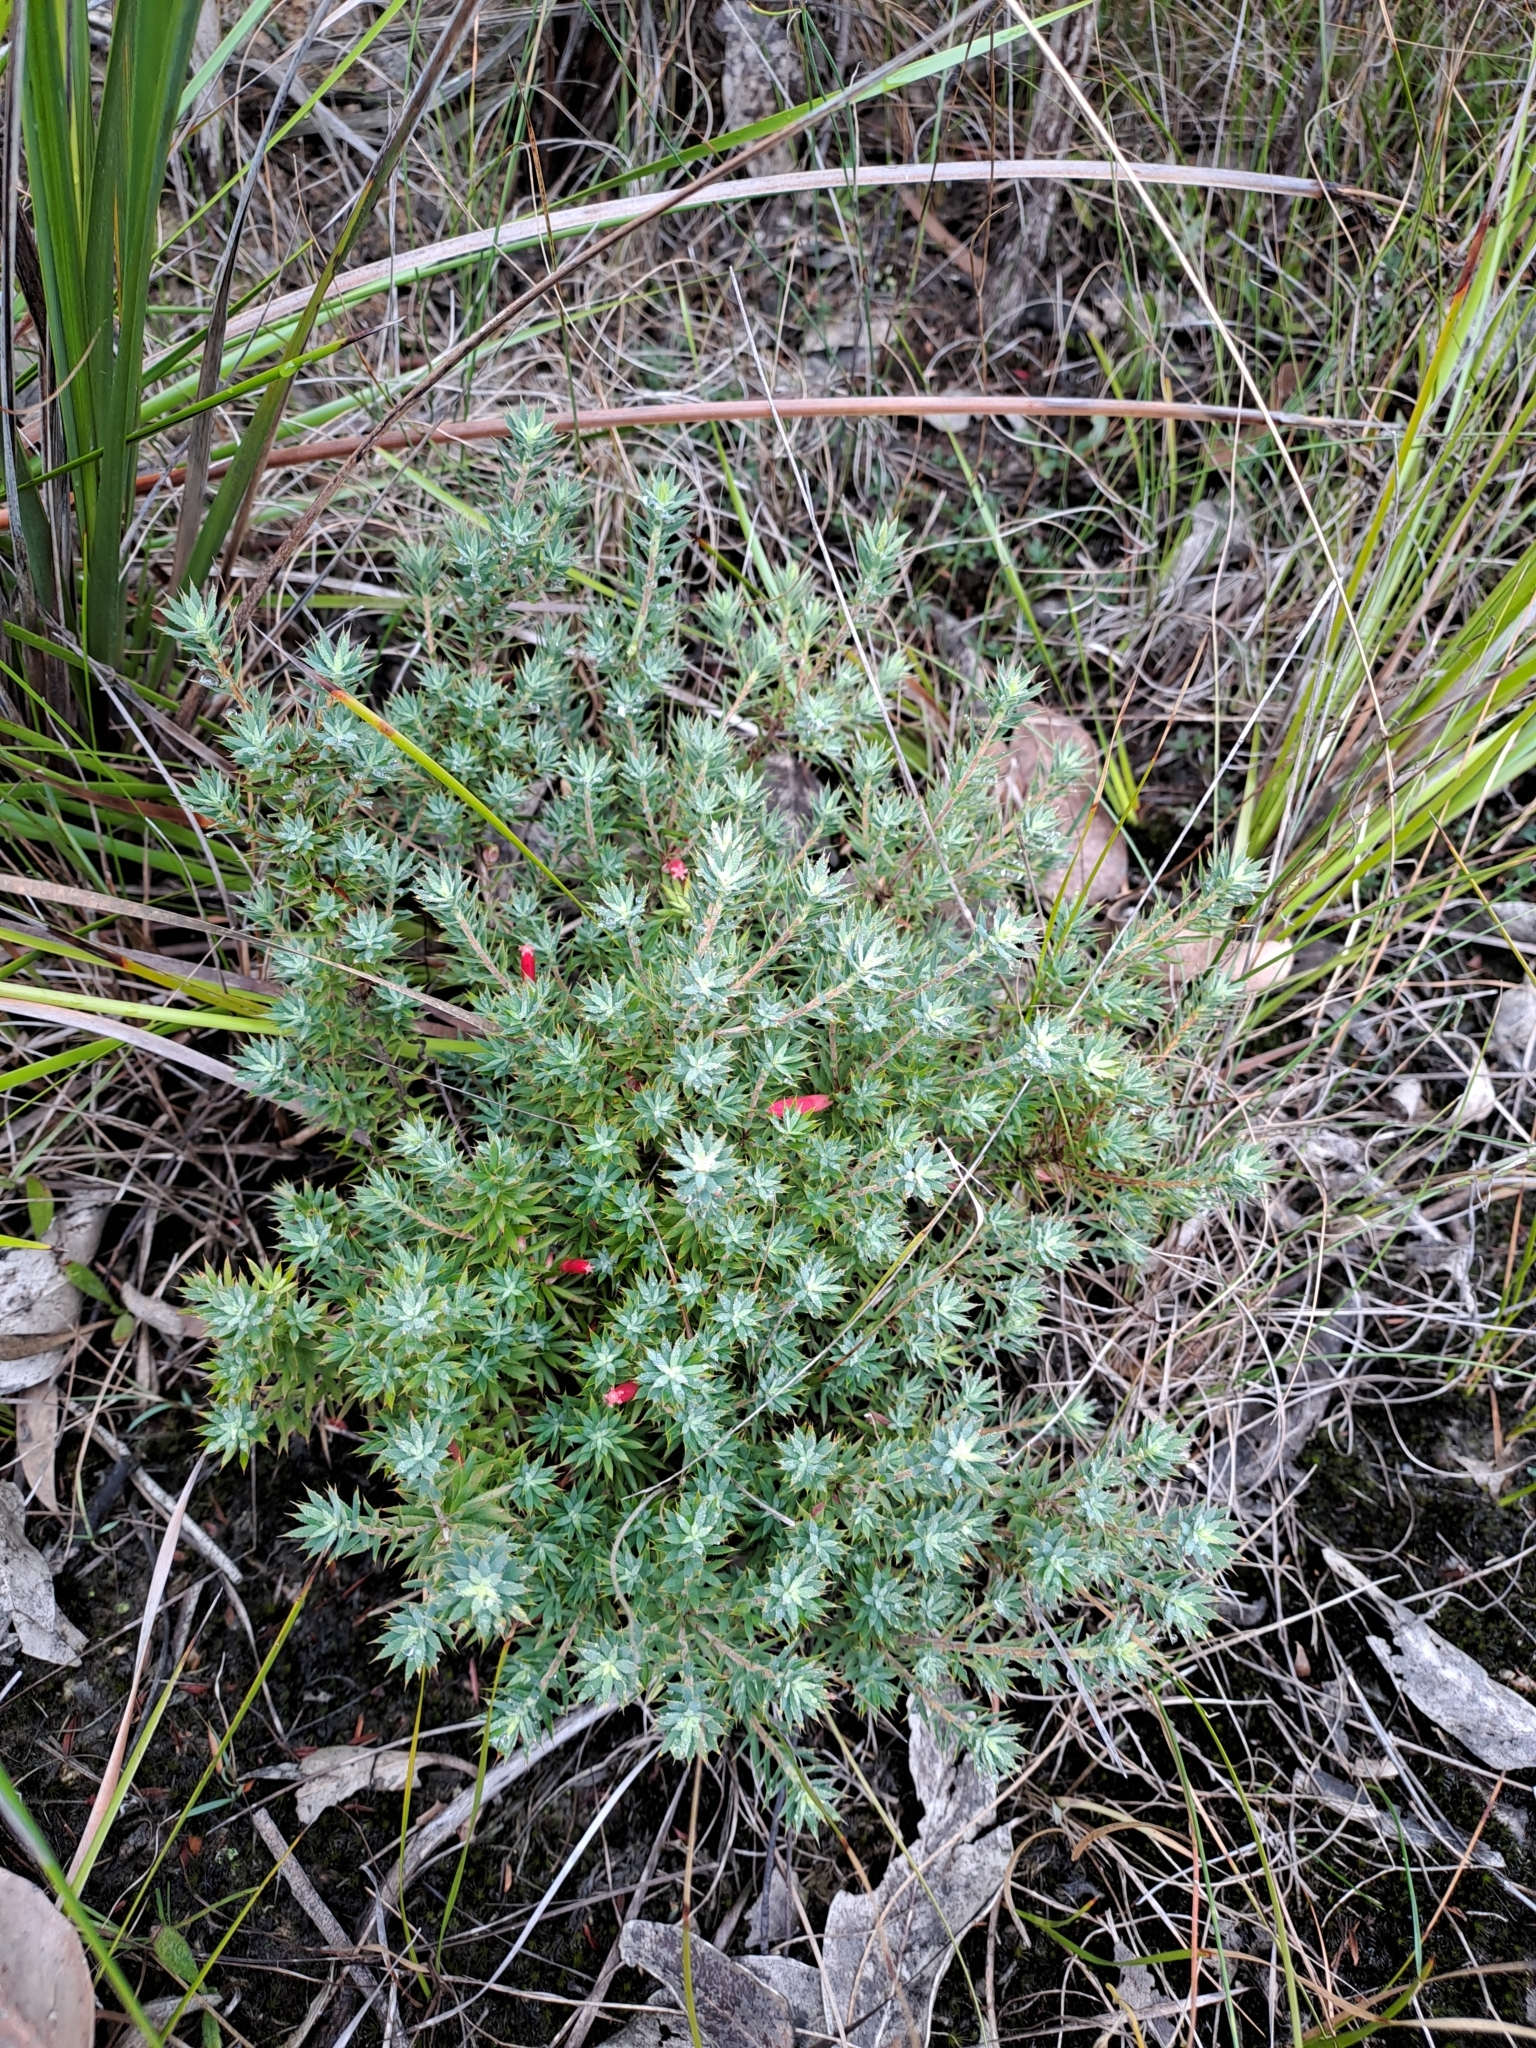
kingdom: Plantae
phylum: Tracheophyta
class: Magnoliopsida
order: Ericales
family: Ericaceae
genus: Styphelia
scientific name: Styphelia humifusa
